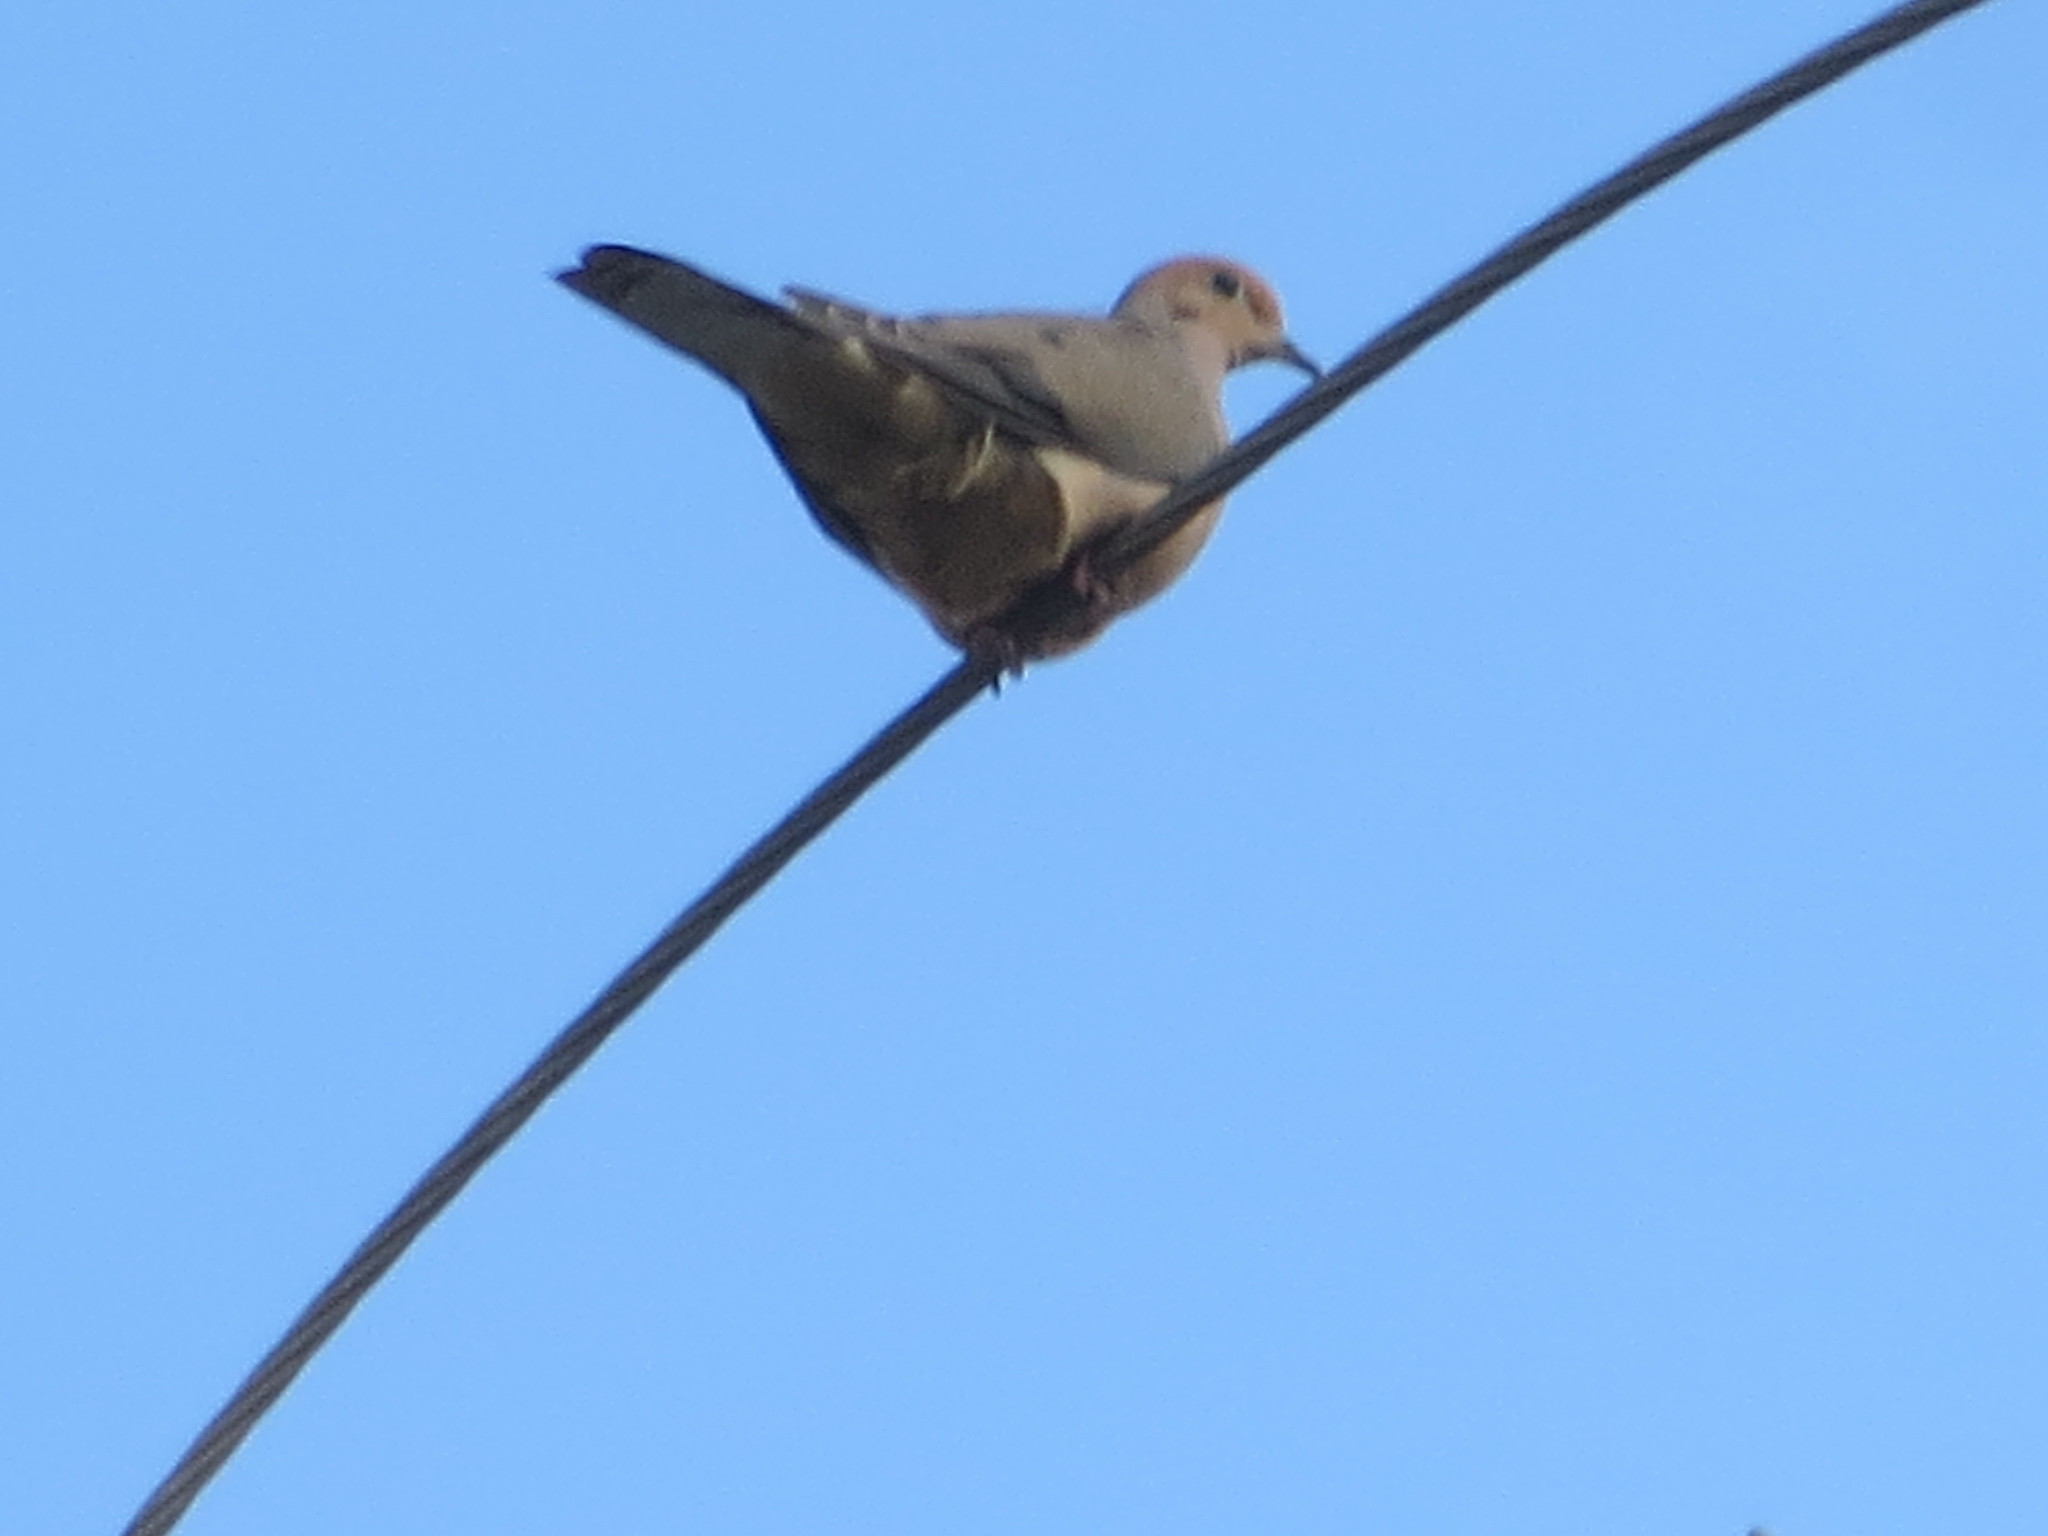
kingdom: Animalia
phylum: Chordata
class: Aves
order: Columbiformes
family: Columbidae
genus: Zenaida
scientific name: Zenaida macroura
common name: Mourning dove
